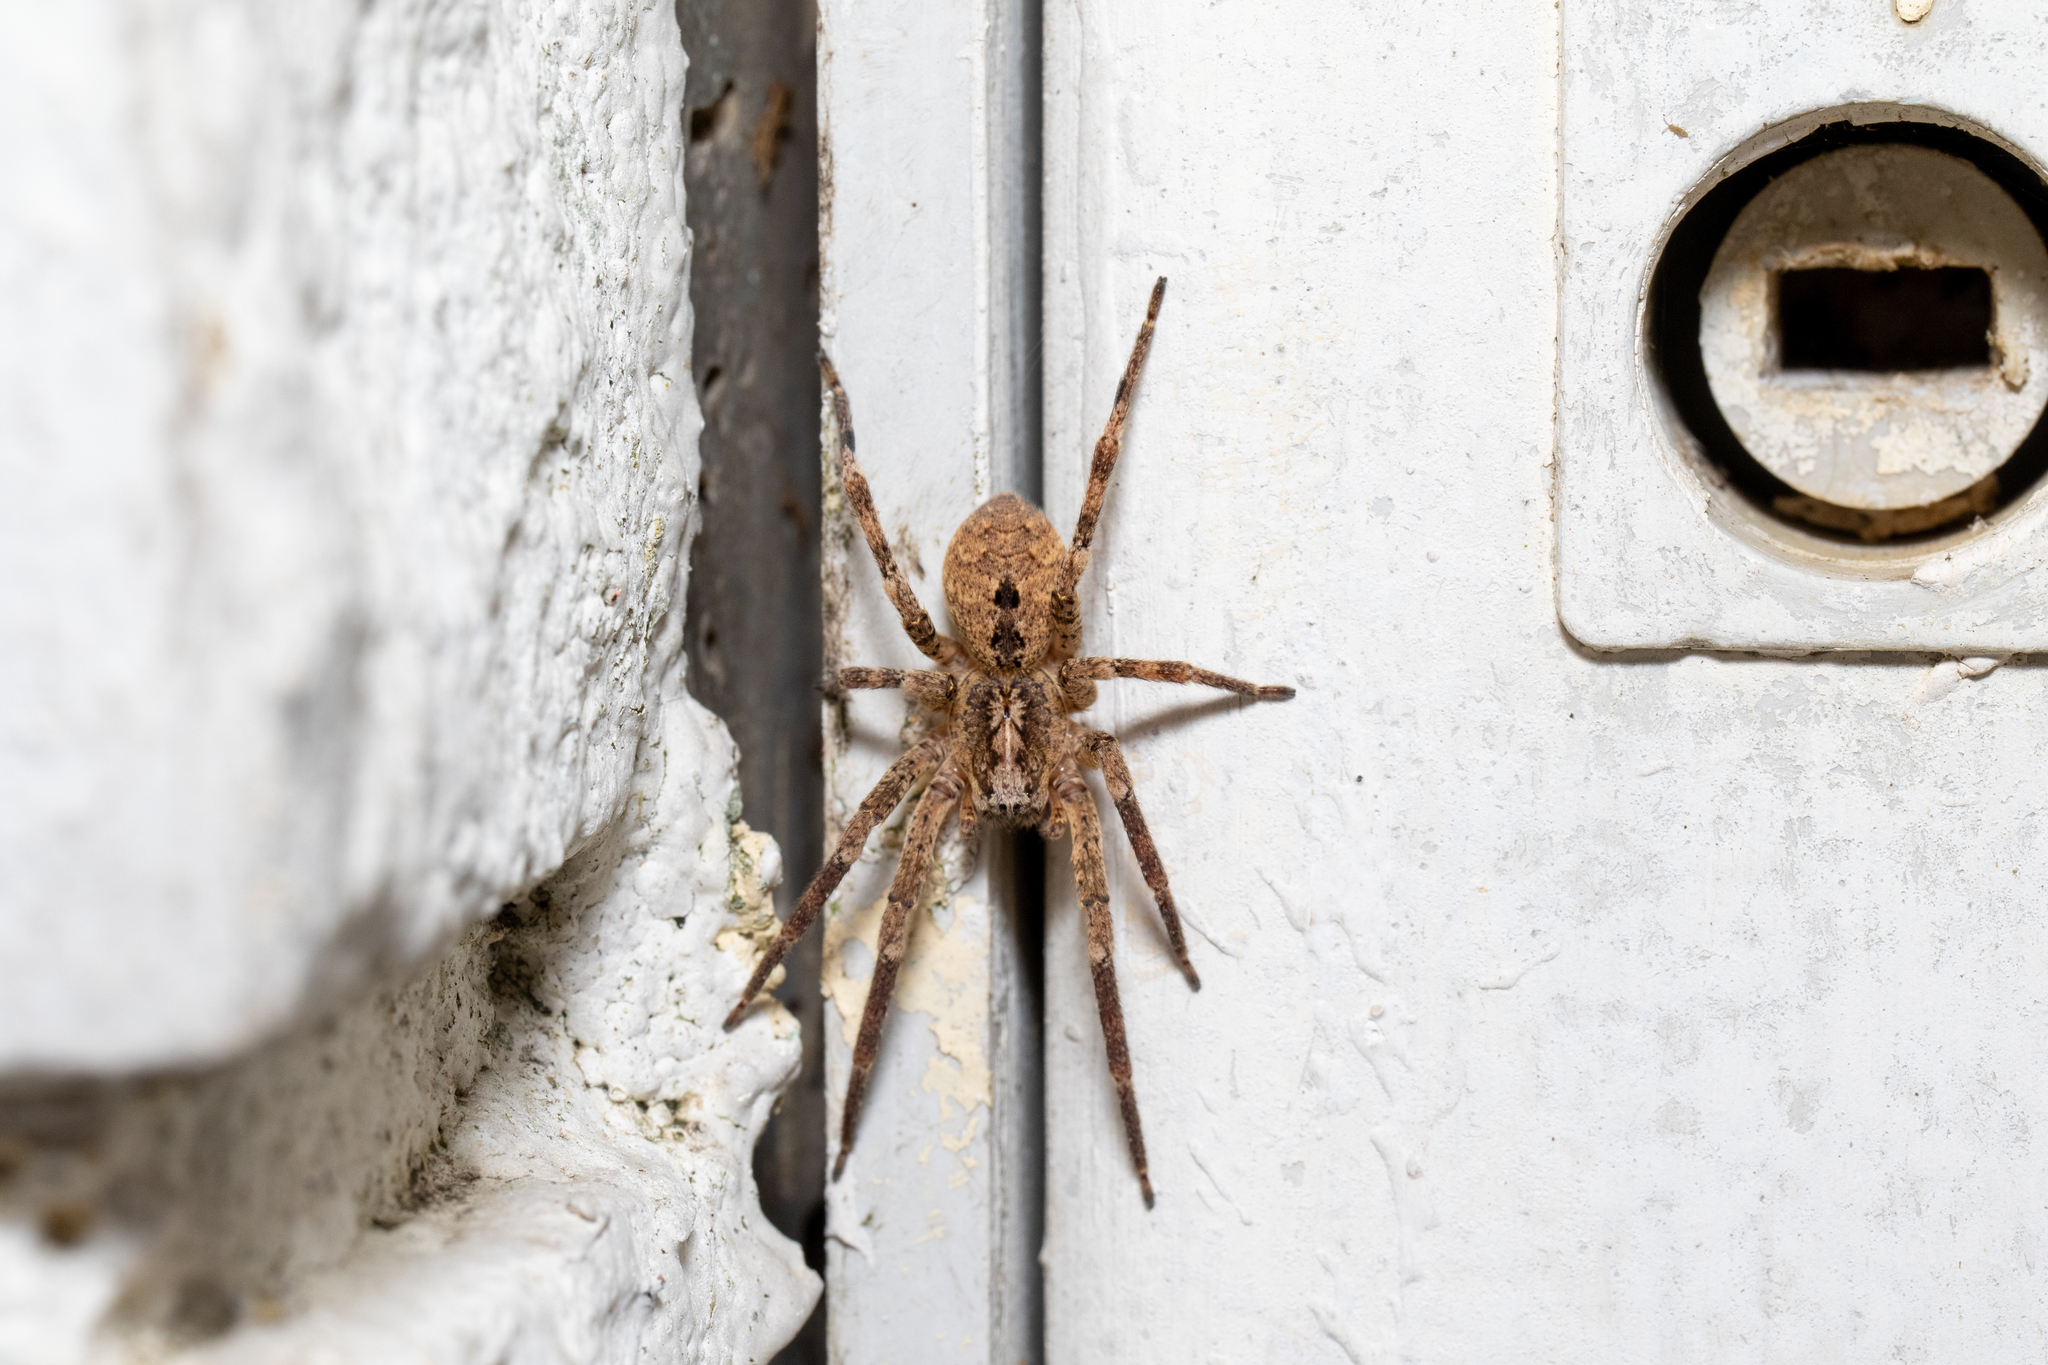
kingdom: Animalia
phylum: Arthropoda
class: Arachnida
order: Araneae
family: Zoropsidae
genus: Zoropsis
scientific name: Zoropsis spinimana
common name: Zoropsid spider
